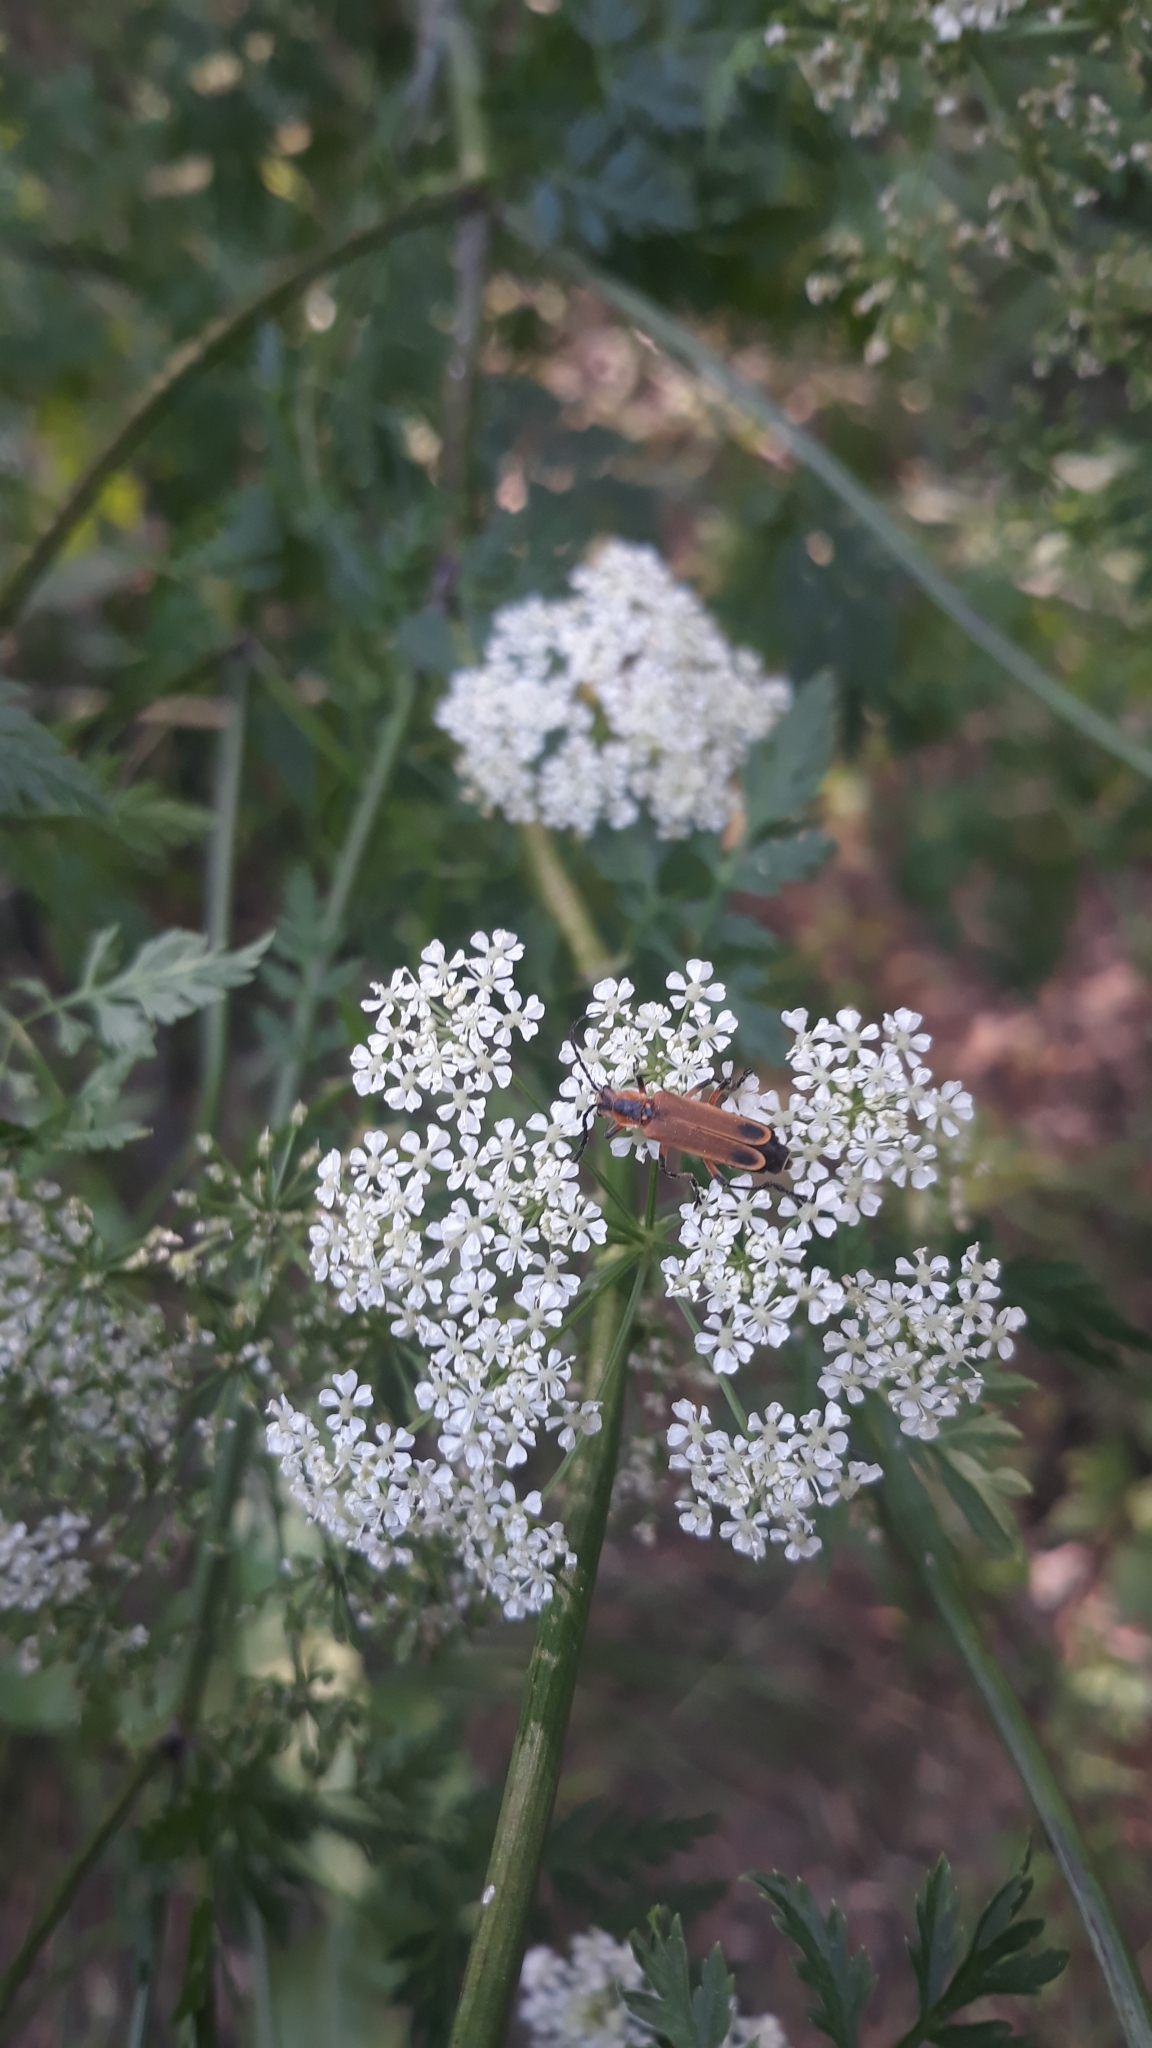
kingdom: Animalia
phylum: Arthropoda
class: Insecta
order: Coleoptera
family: Cantharidae
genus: Chauliognathus
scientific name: Chauliognathus marginatus
